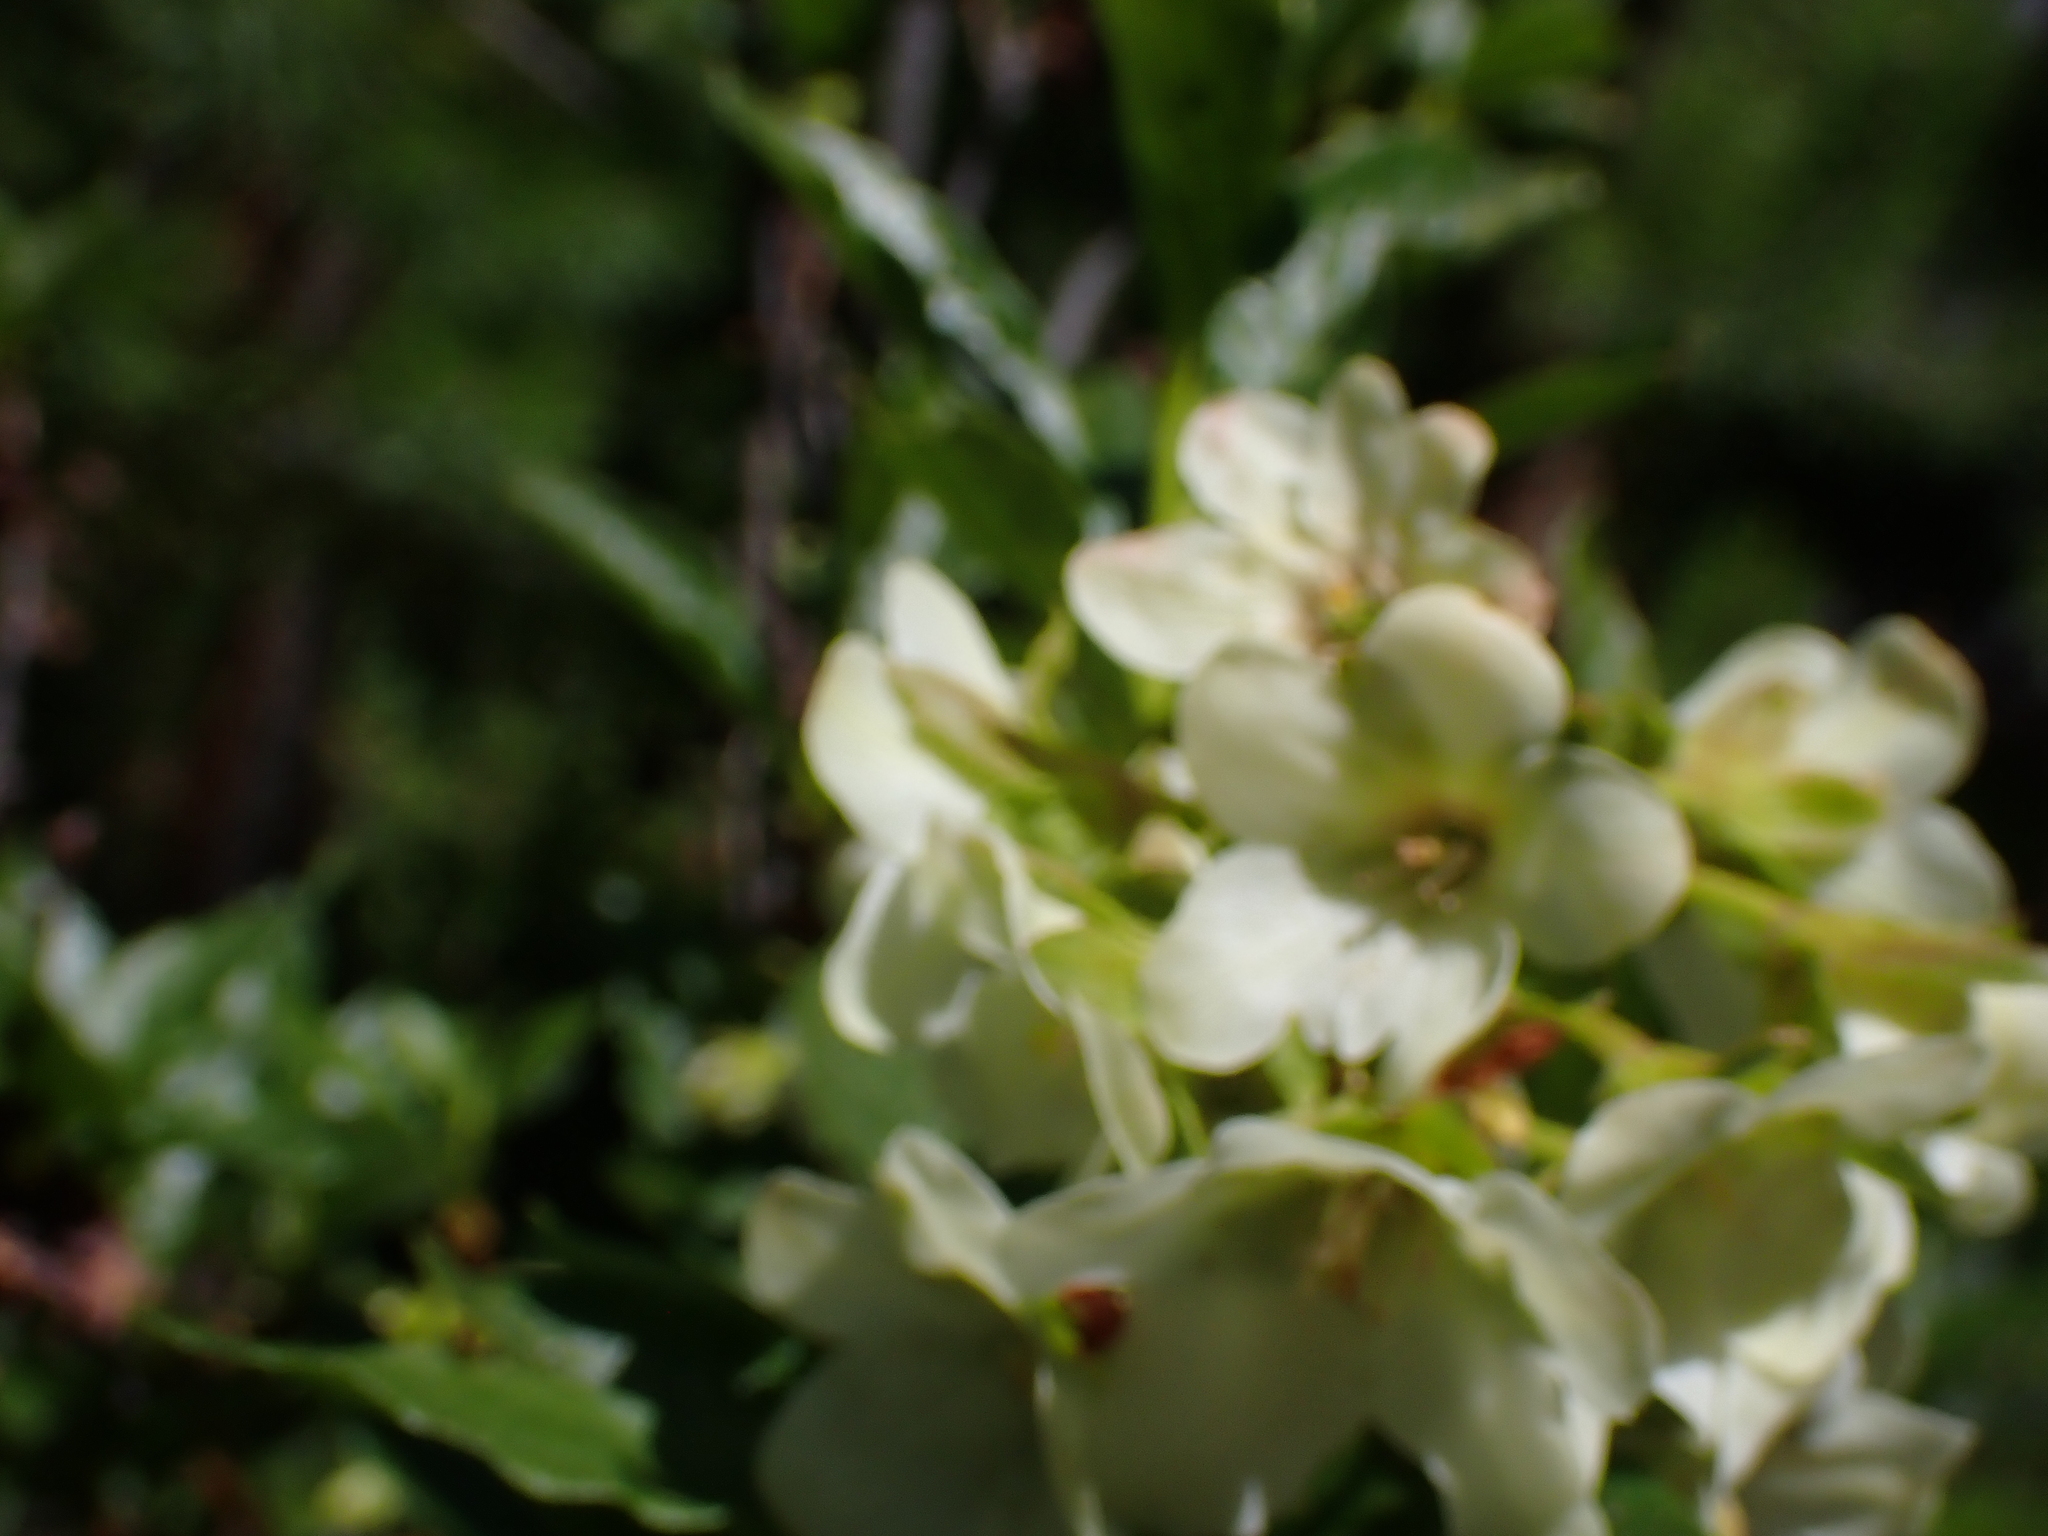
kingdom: Plantae
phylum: Tracheophyta
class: Magnoliopsida
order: Ericales
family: Ericaceae
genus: Rhododendron
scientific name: Rhododendron albiflorum
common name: White rhododendron
